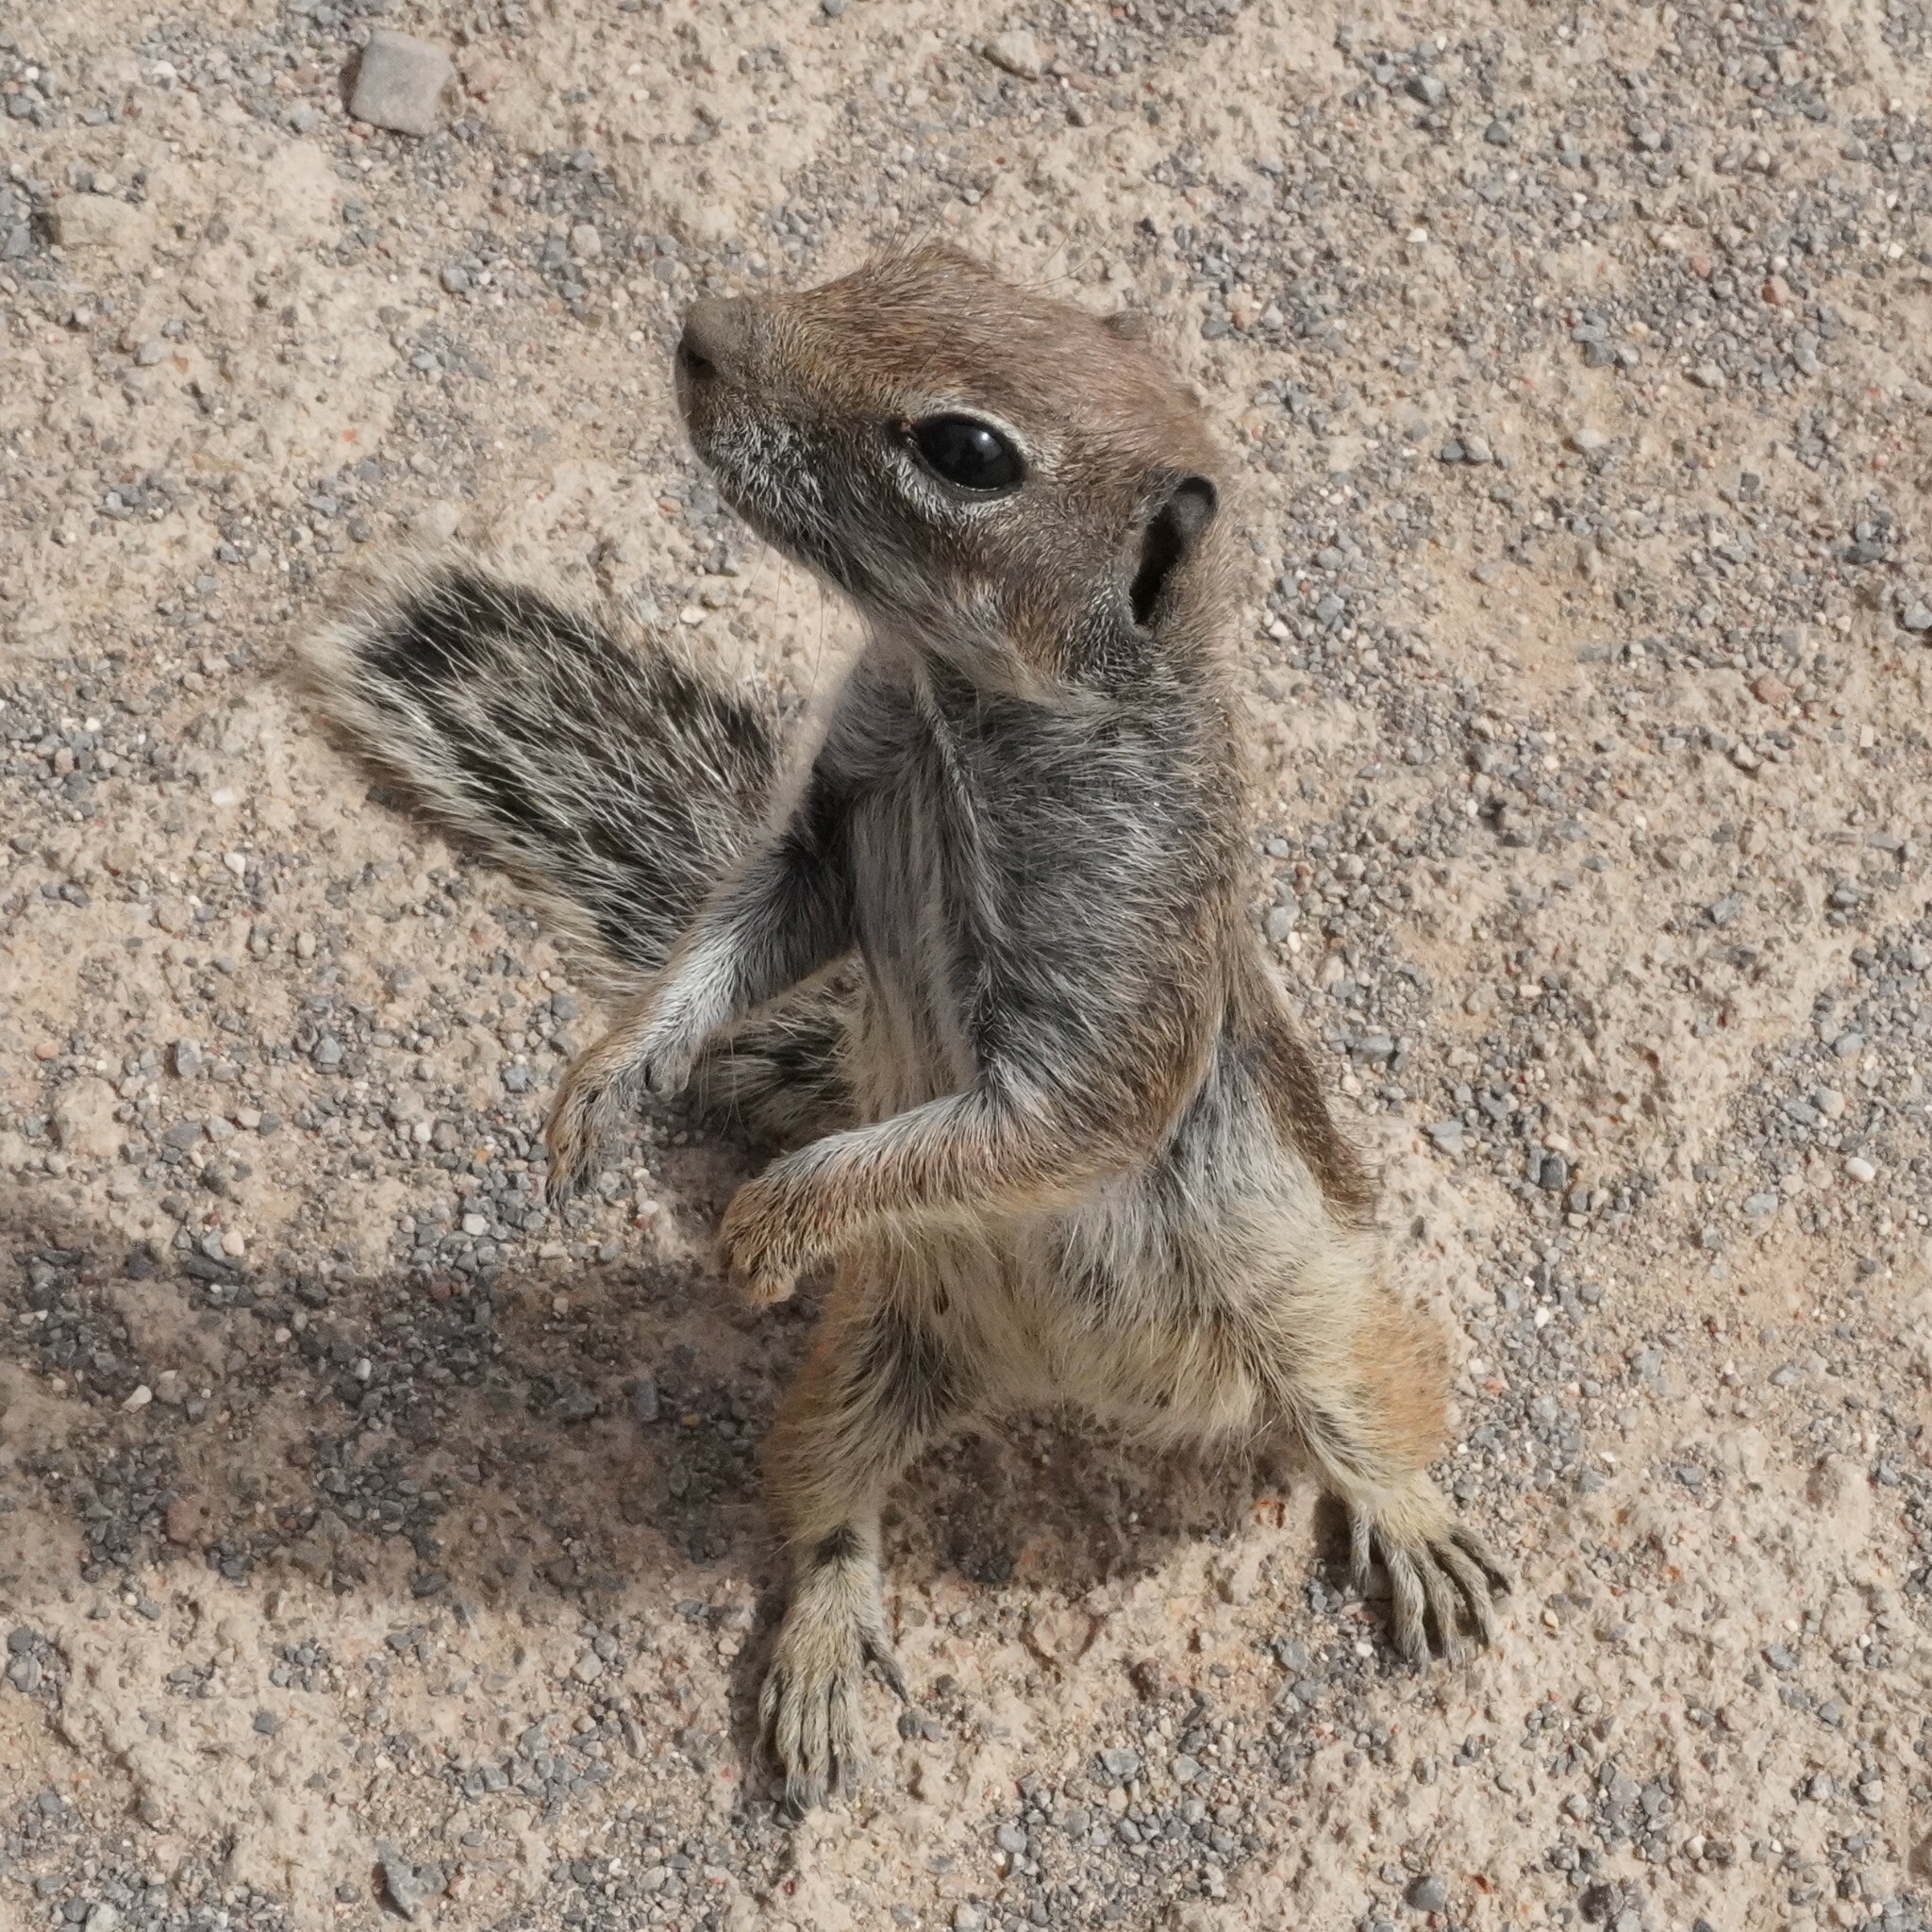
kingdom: Animalia
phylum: Chordata
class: Mammalia
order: Rodentia
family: Sciuridae
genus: Atlantoxerus
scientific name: Atlantoxerus getulus
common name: Barbary ground squirrel
